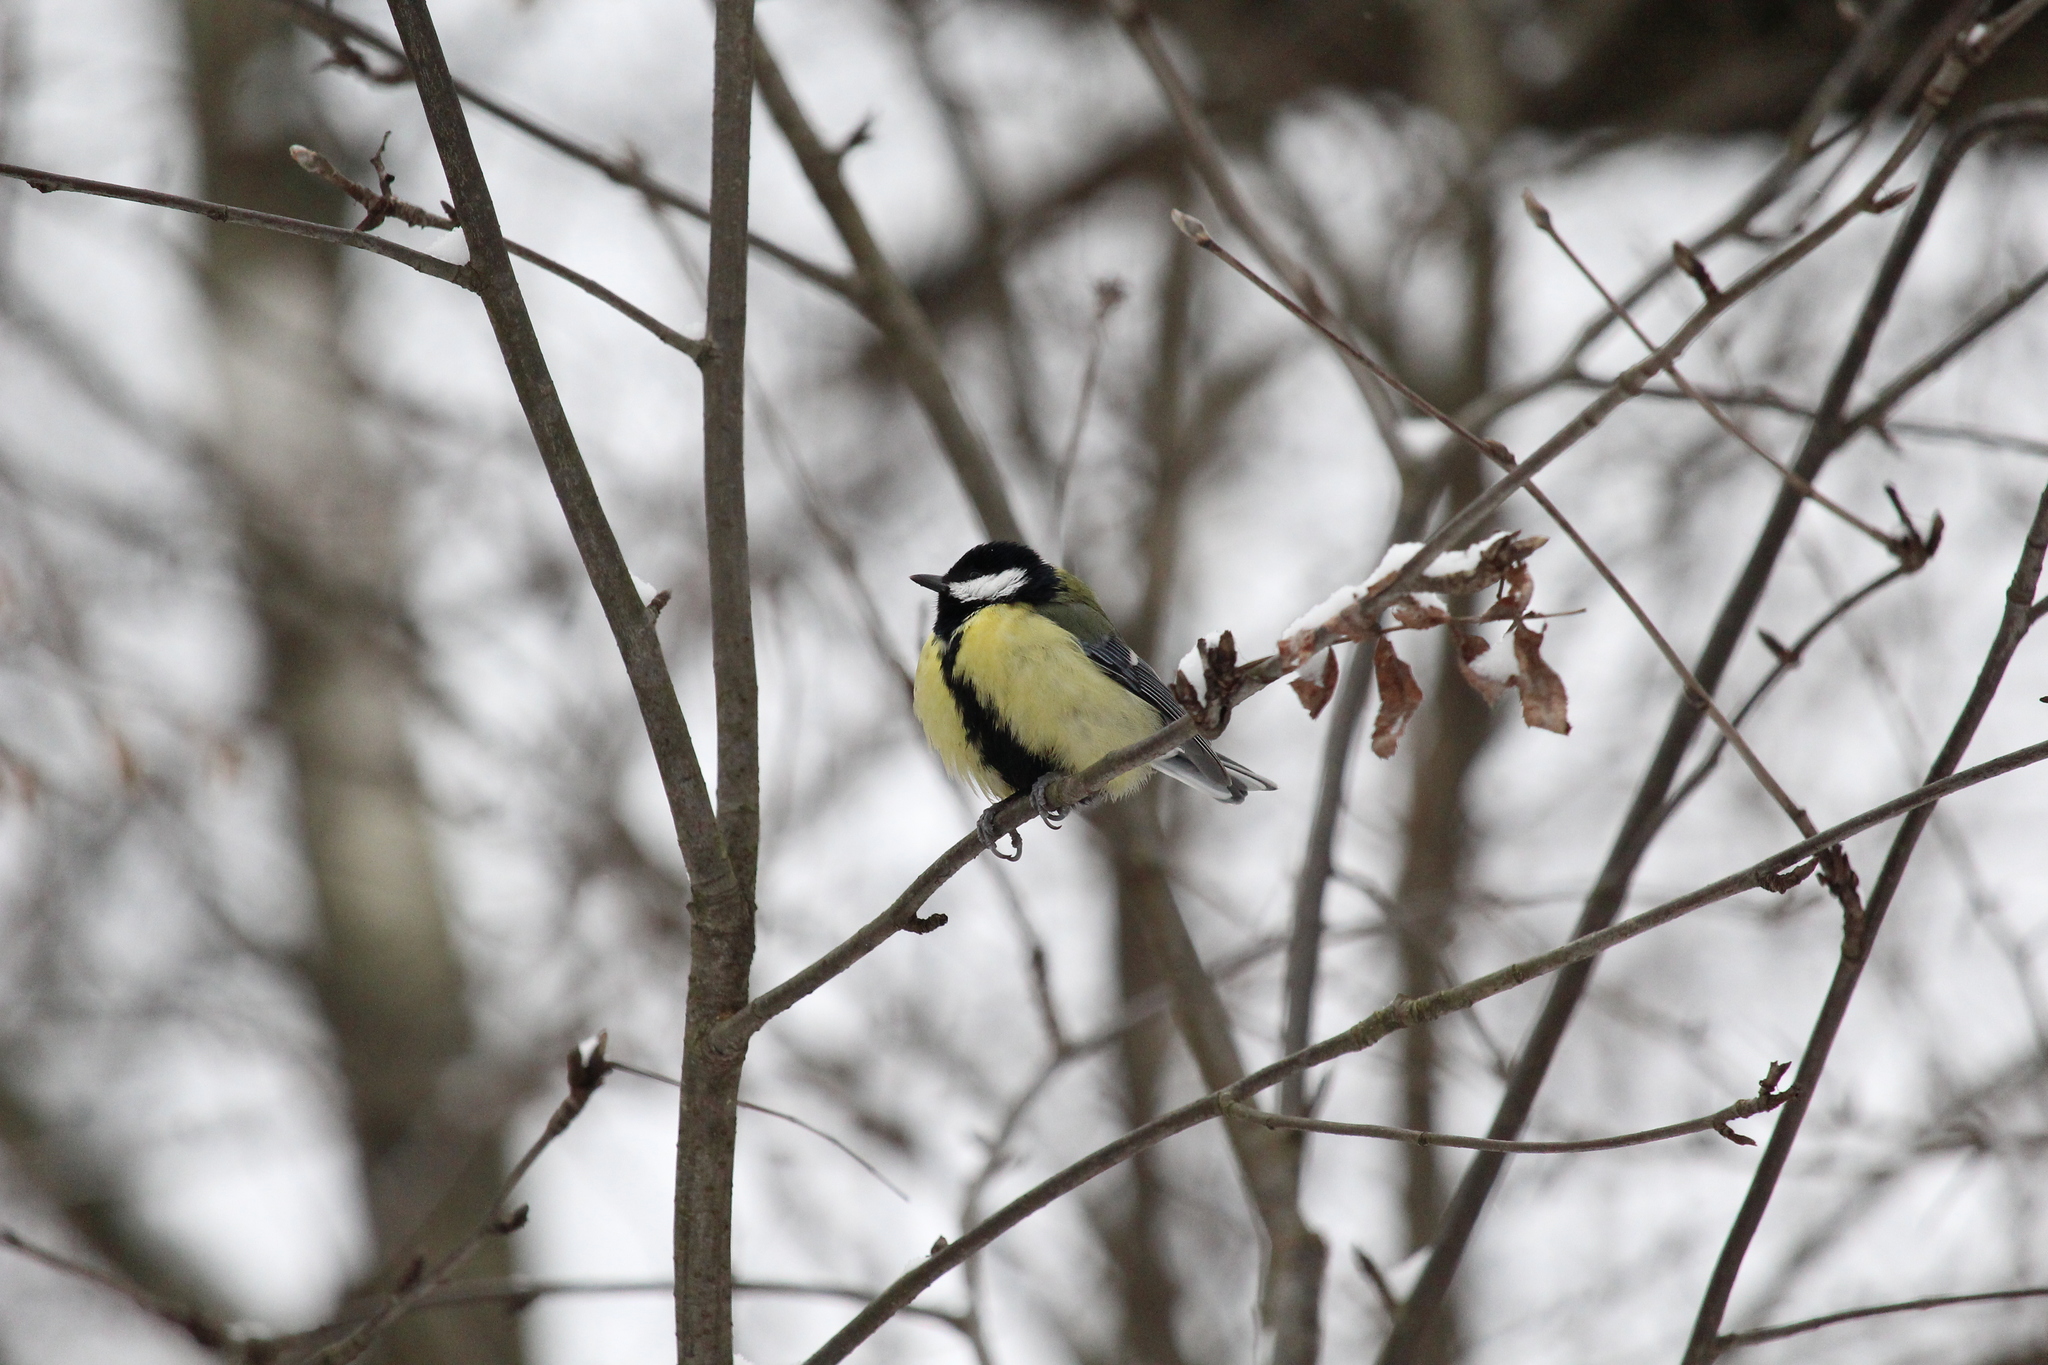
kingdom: Animalia
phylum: Chordata
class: Aves
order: Passeriformes
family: Paridae
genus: Parus
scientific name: Parus major
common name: Great tit
